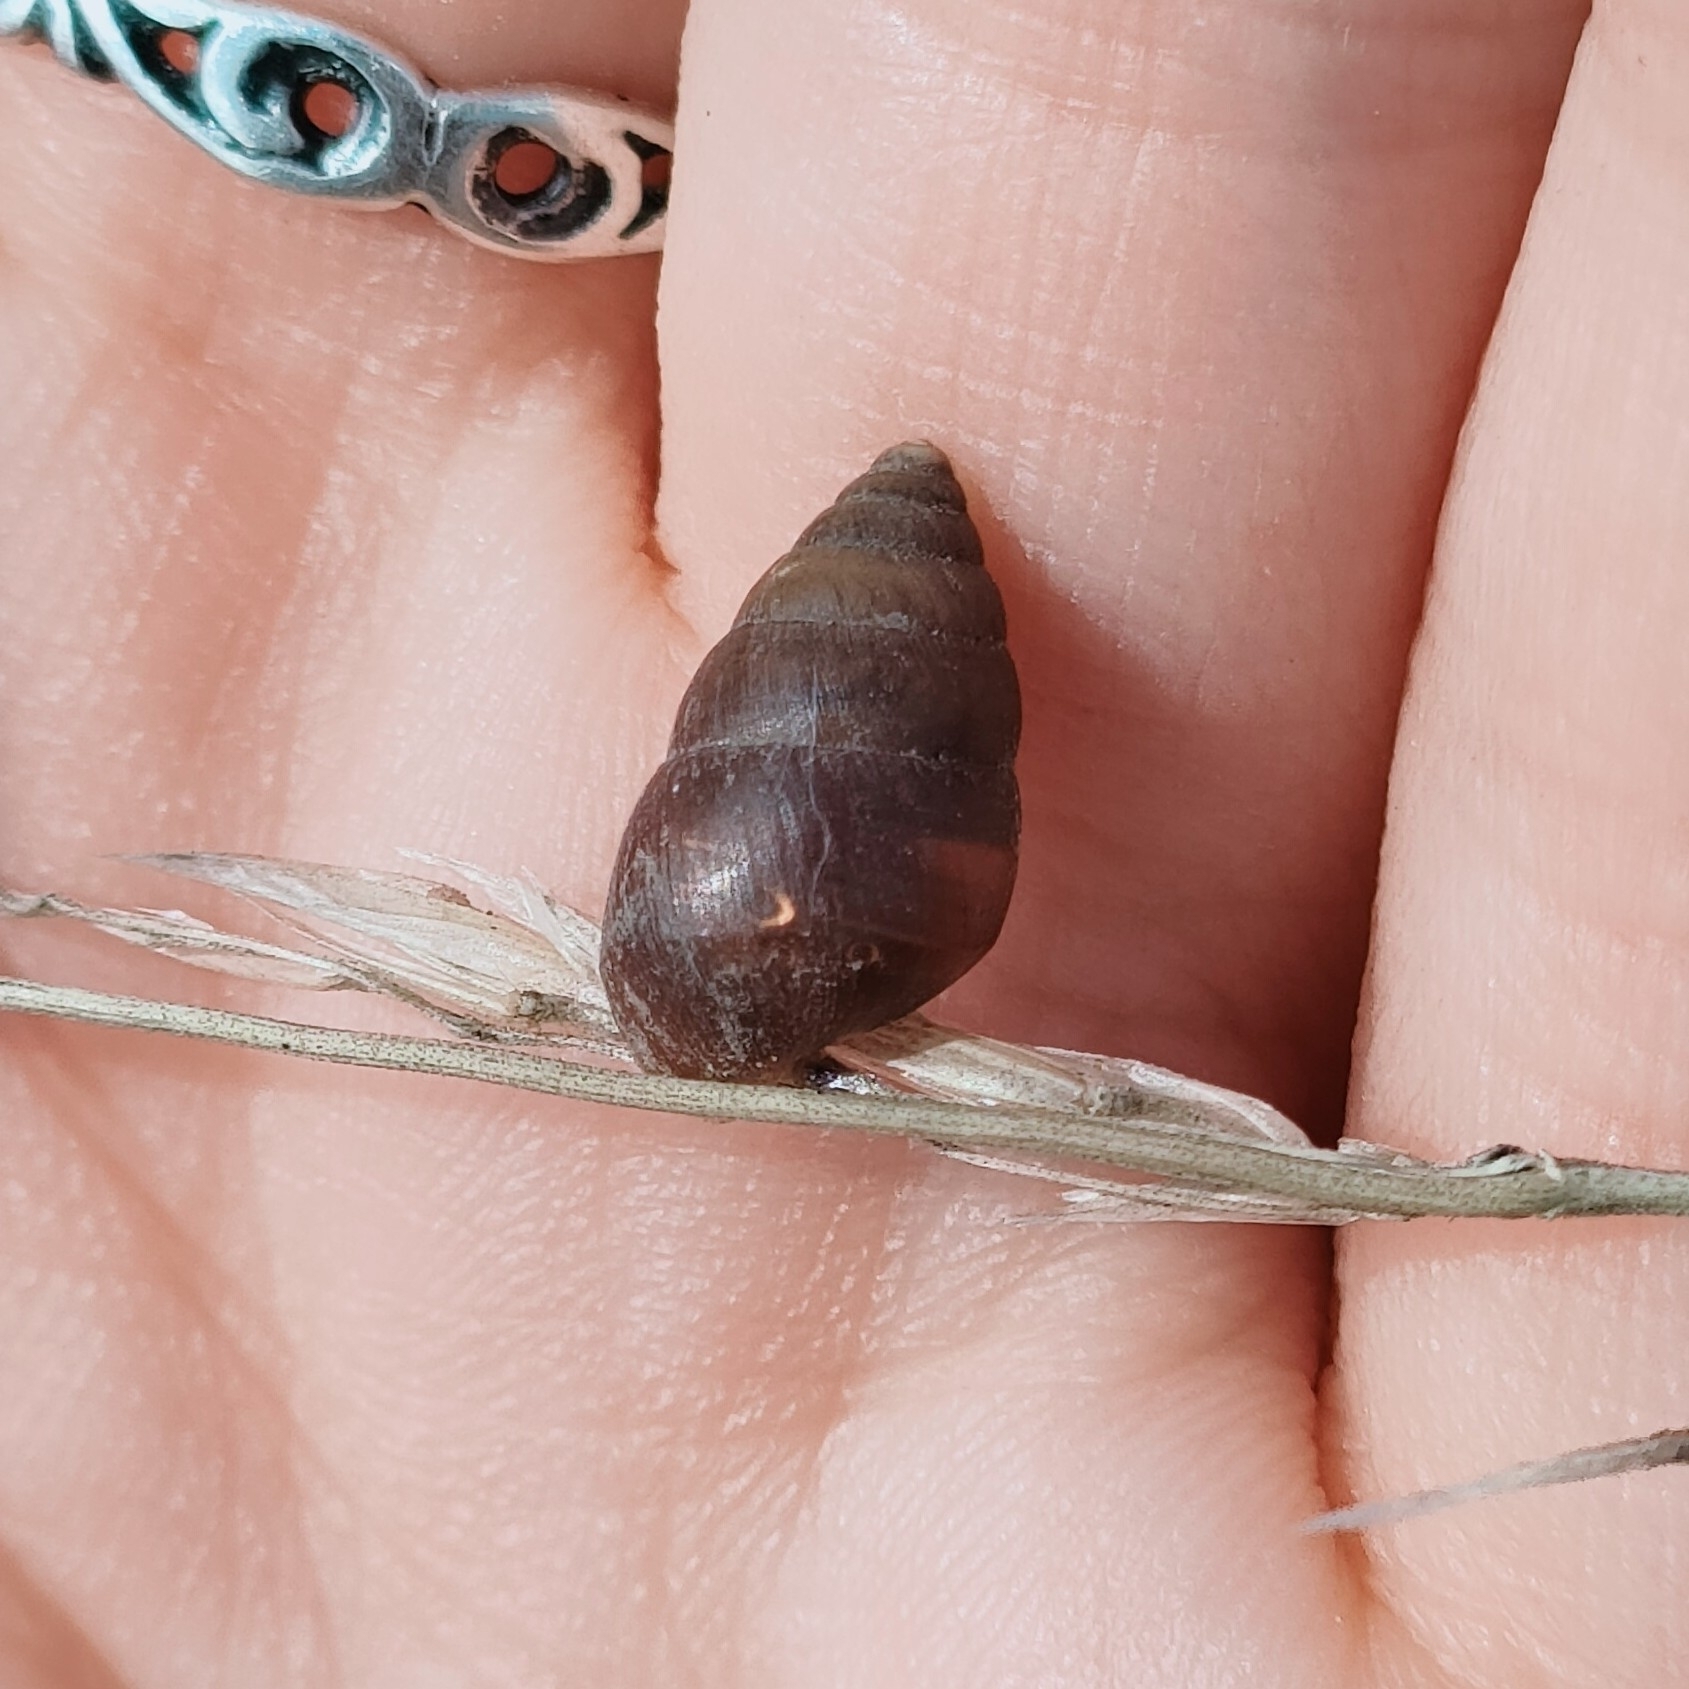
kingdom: Animalia
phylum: Mollusca
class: Gastropoda
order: Stylommatophora
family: Enidae
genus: Chondrula
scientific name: Chondrula tridens
